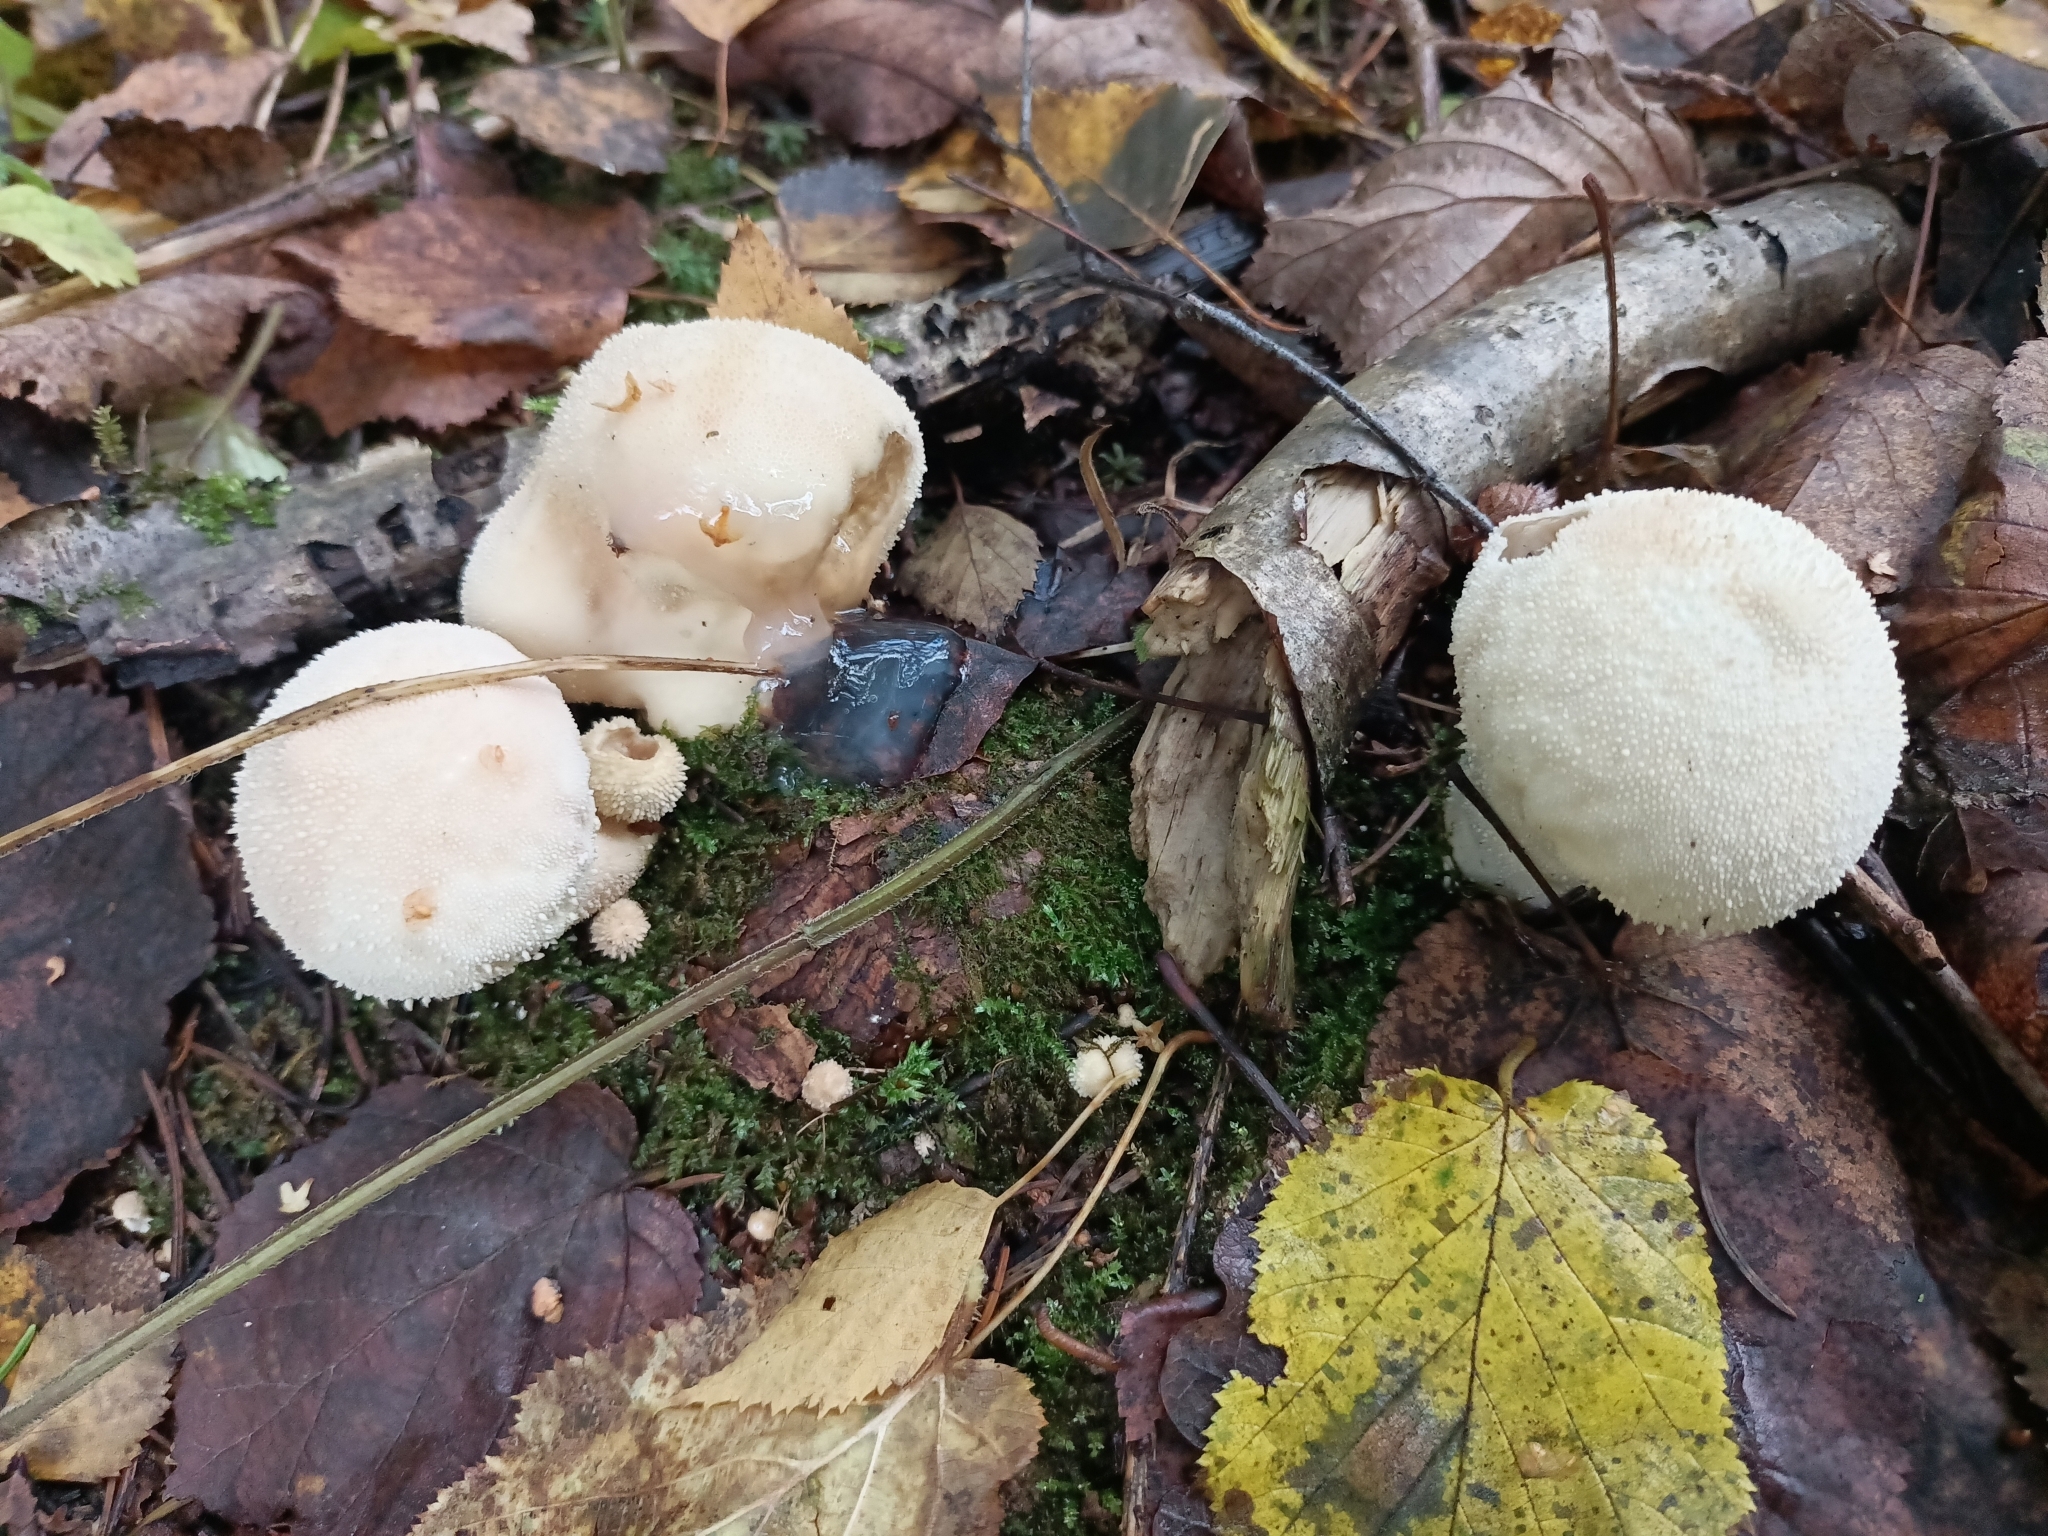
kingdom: Fungi
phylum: Basidiomycota
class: Agaricomycetes
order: Agaricales
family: Lycoperdaceae
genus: Lycoperdon
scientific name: Lycoperdon perlatum
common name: Common puffball
